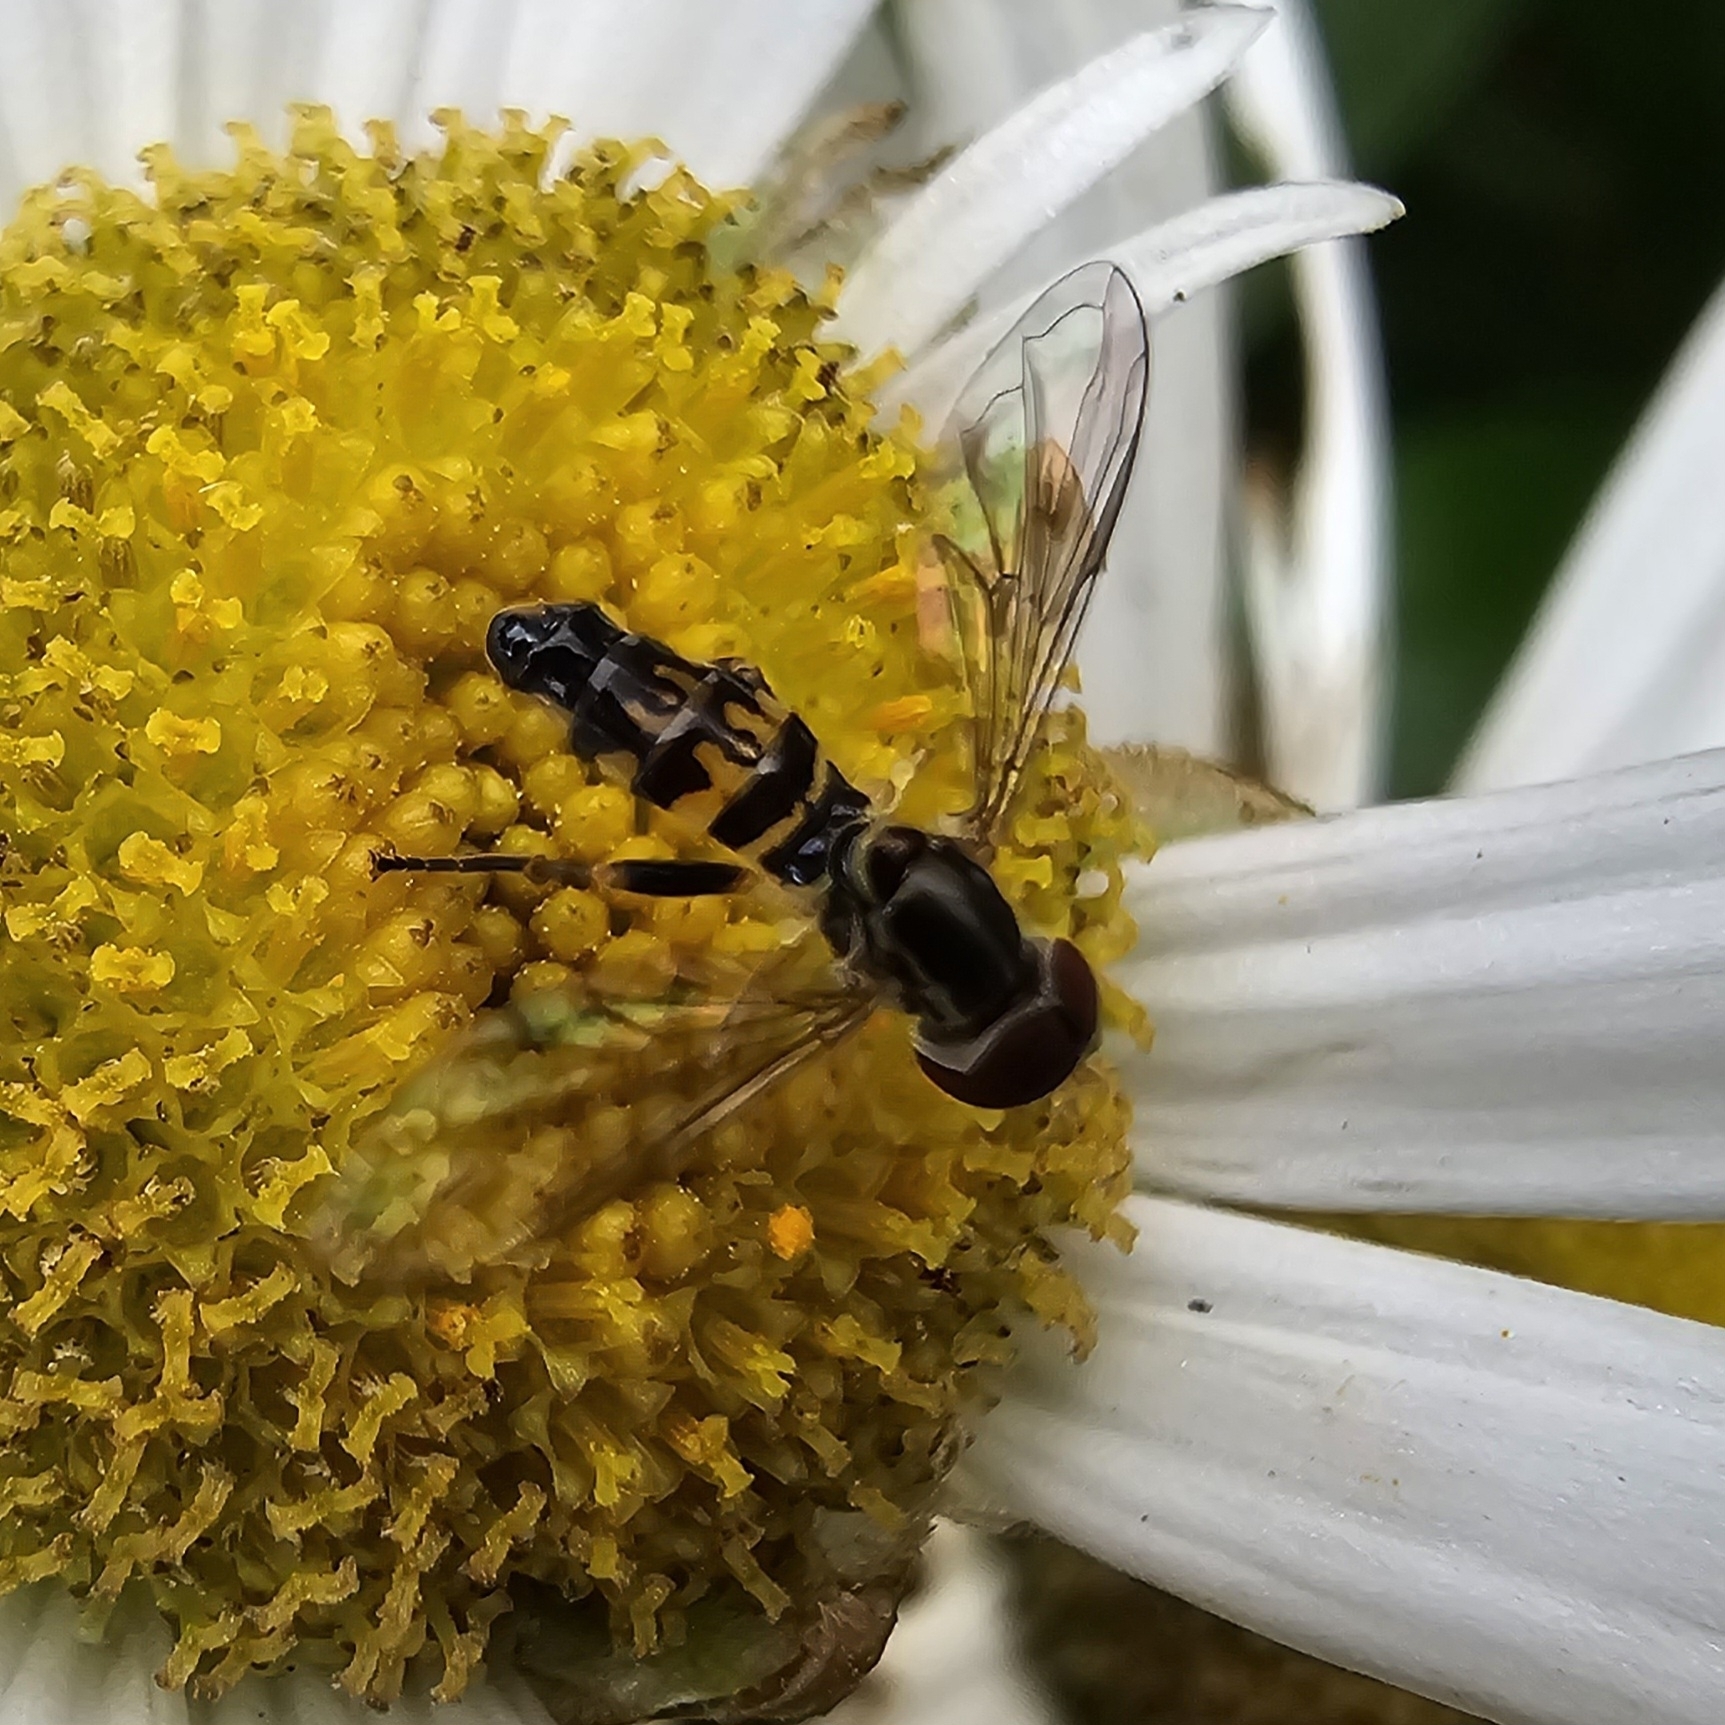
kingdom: Animalia
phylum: Arthropoda
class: Insecta
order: Diptera
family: Syrphidae
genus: Toxomerus
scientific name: Toxomerus geminatus
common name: Eastern calligrapher
